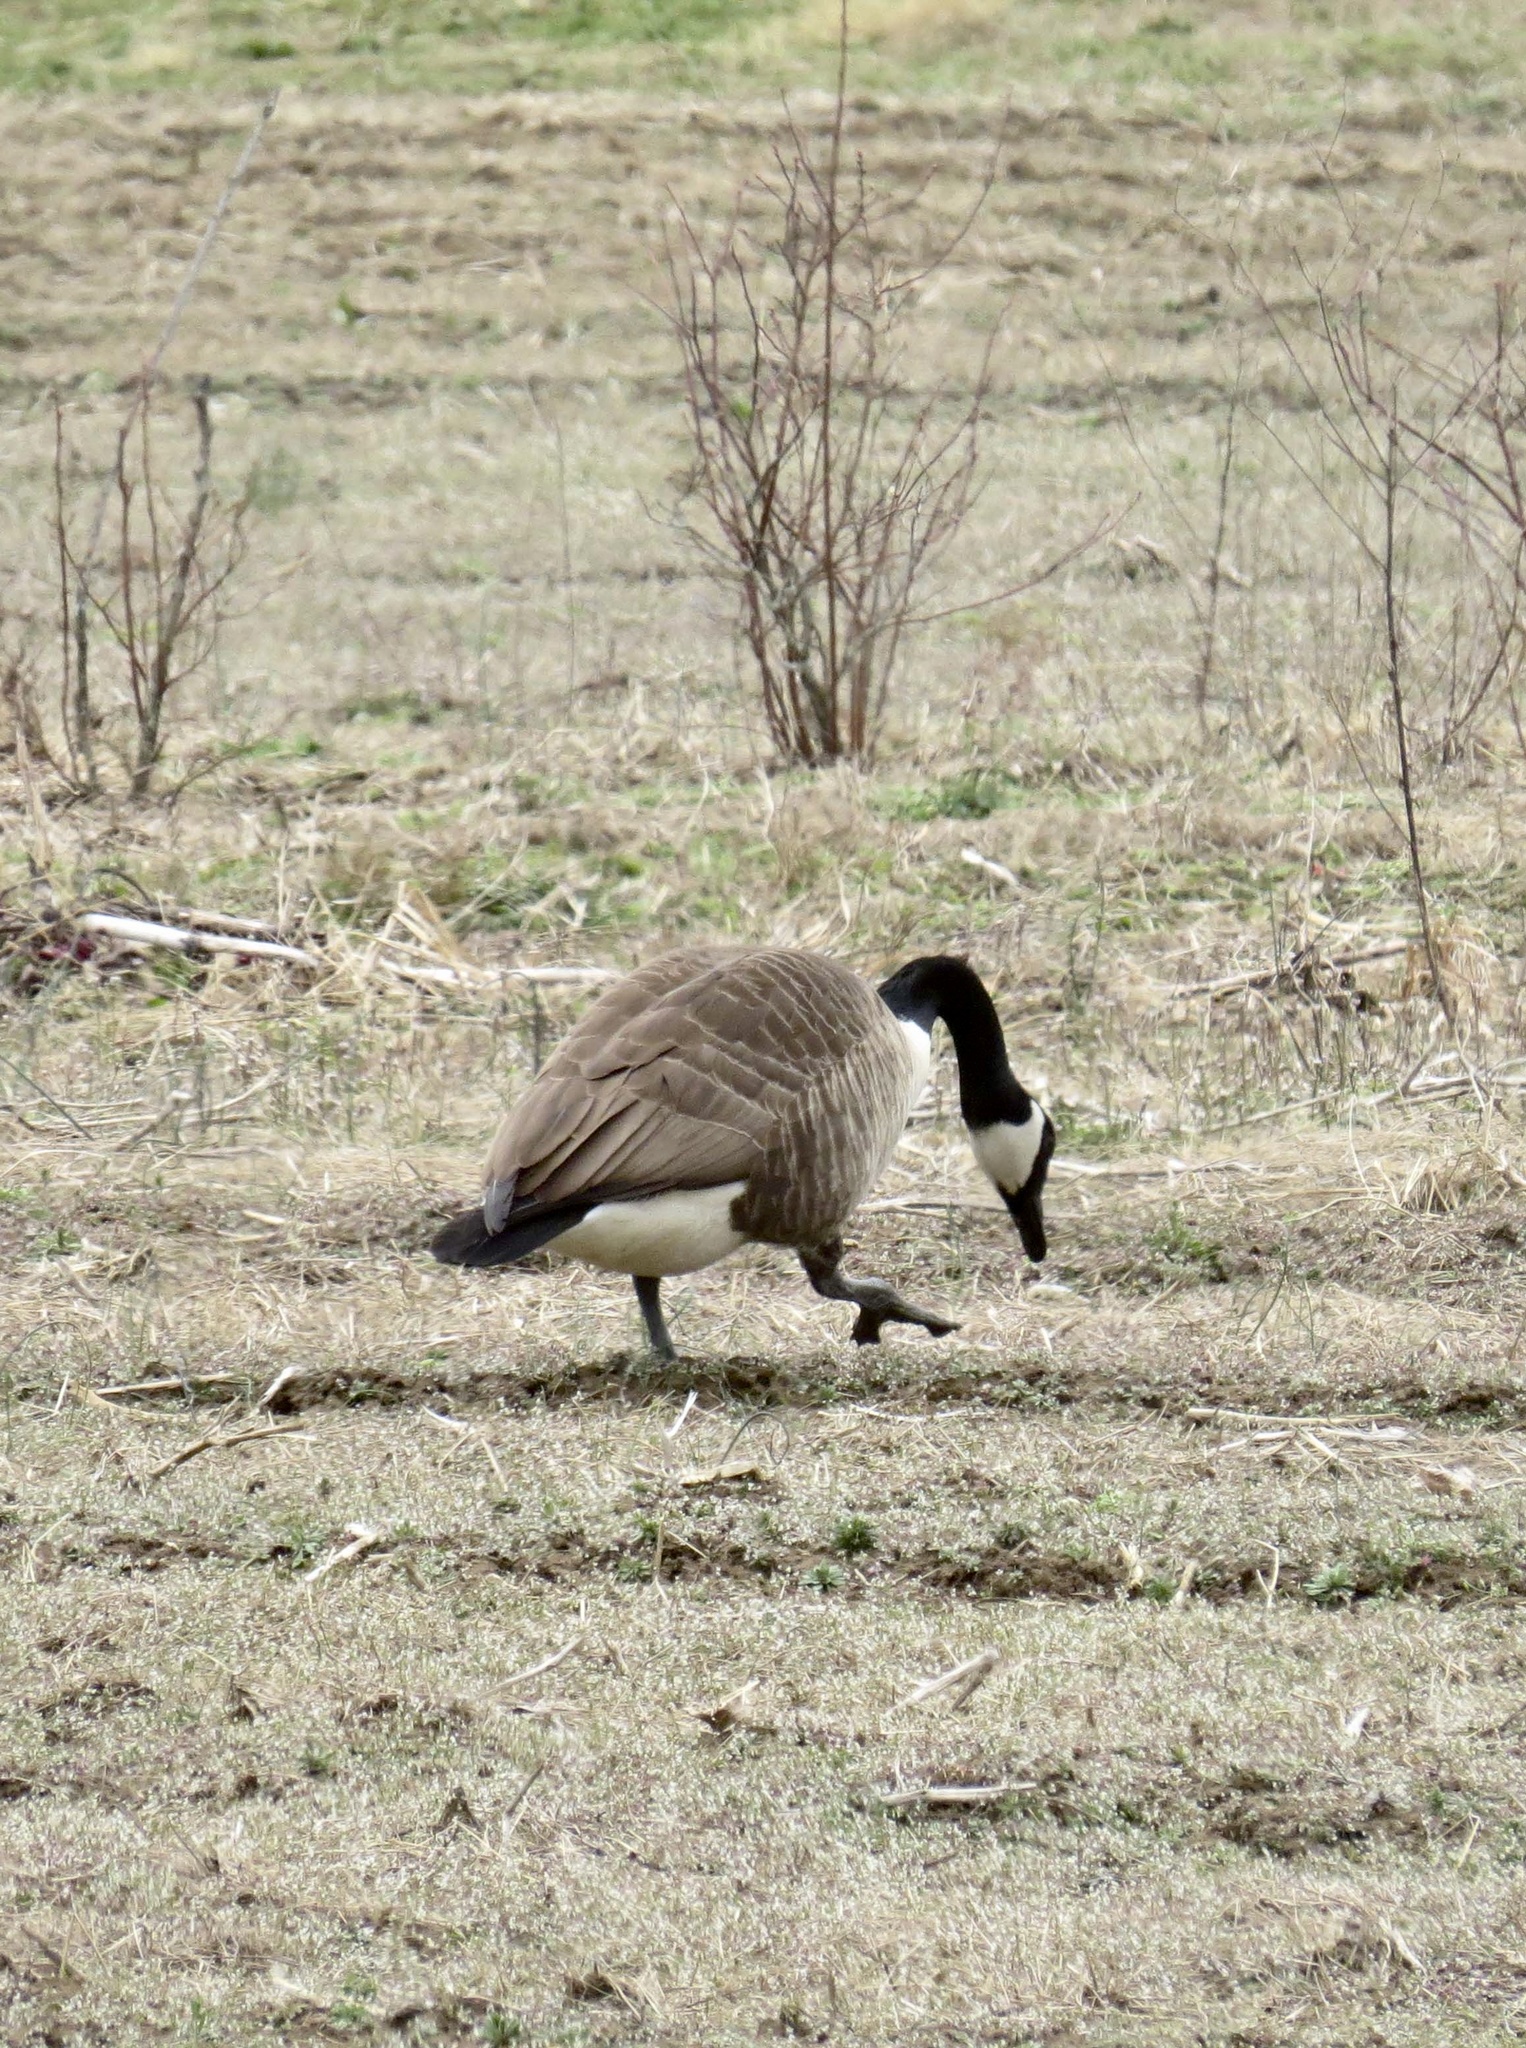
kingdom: Animalia
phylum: Chordata
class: Aves
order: Anseriformes
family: Anatidae
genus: Branta
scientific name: Branta canadensis
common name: Canada goose
